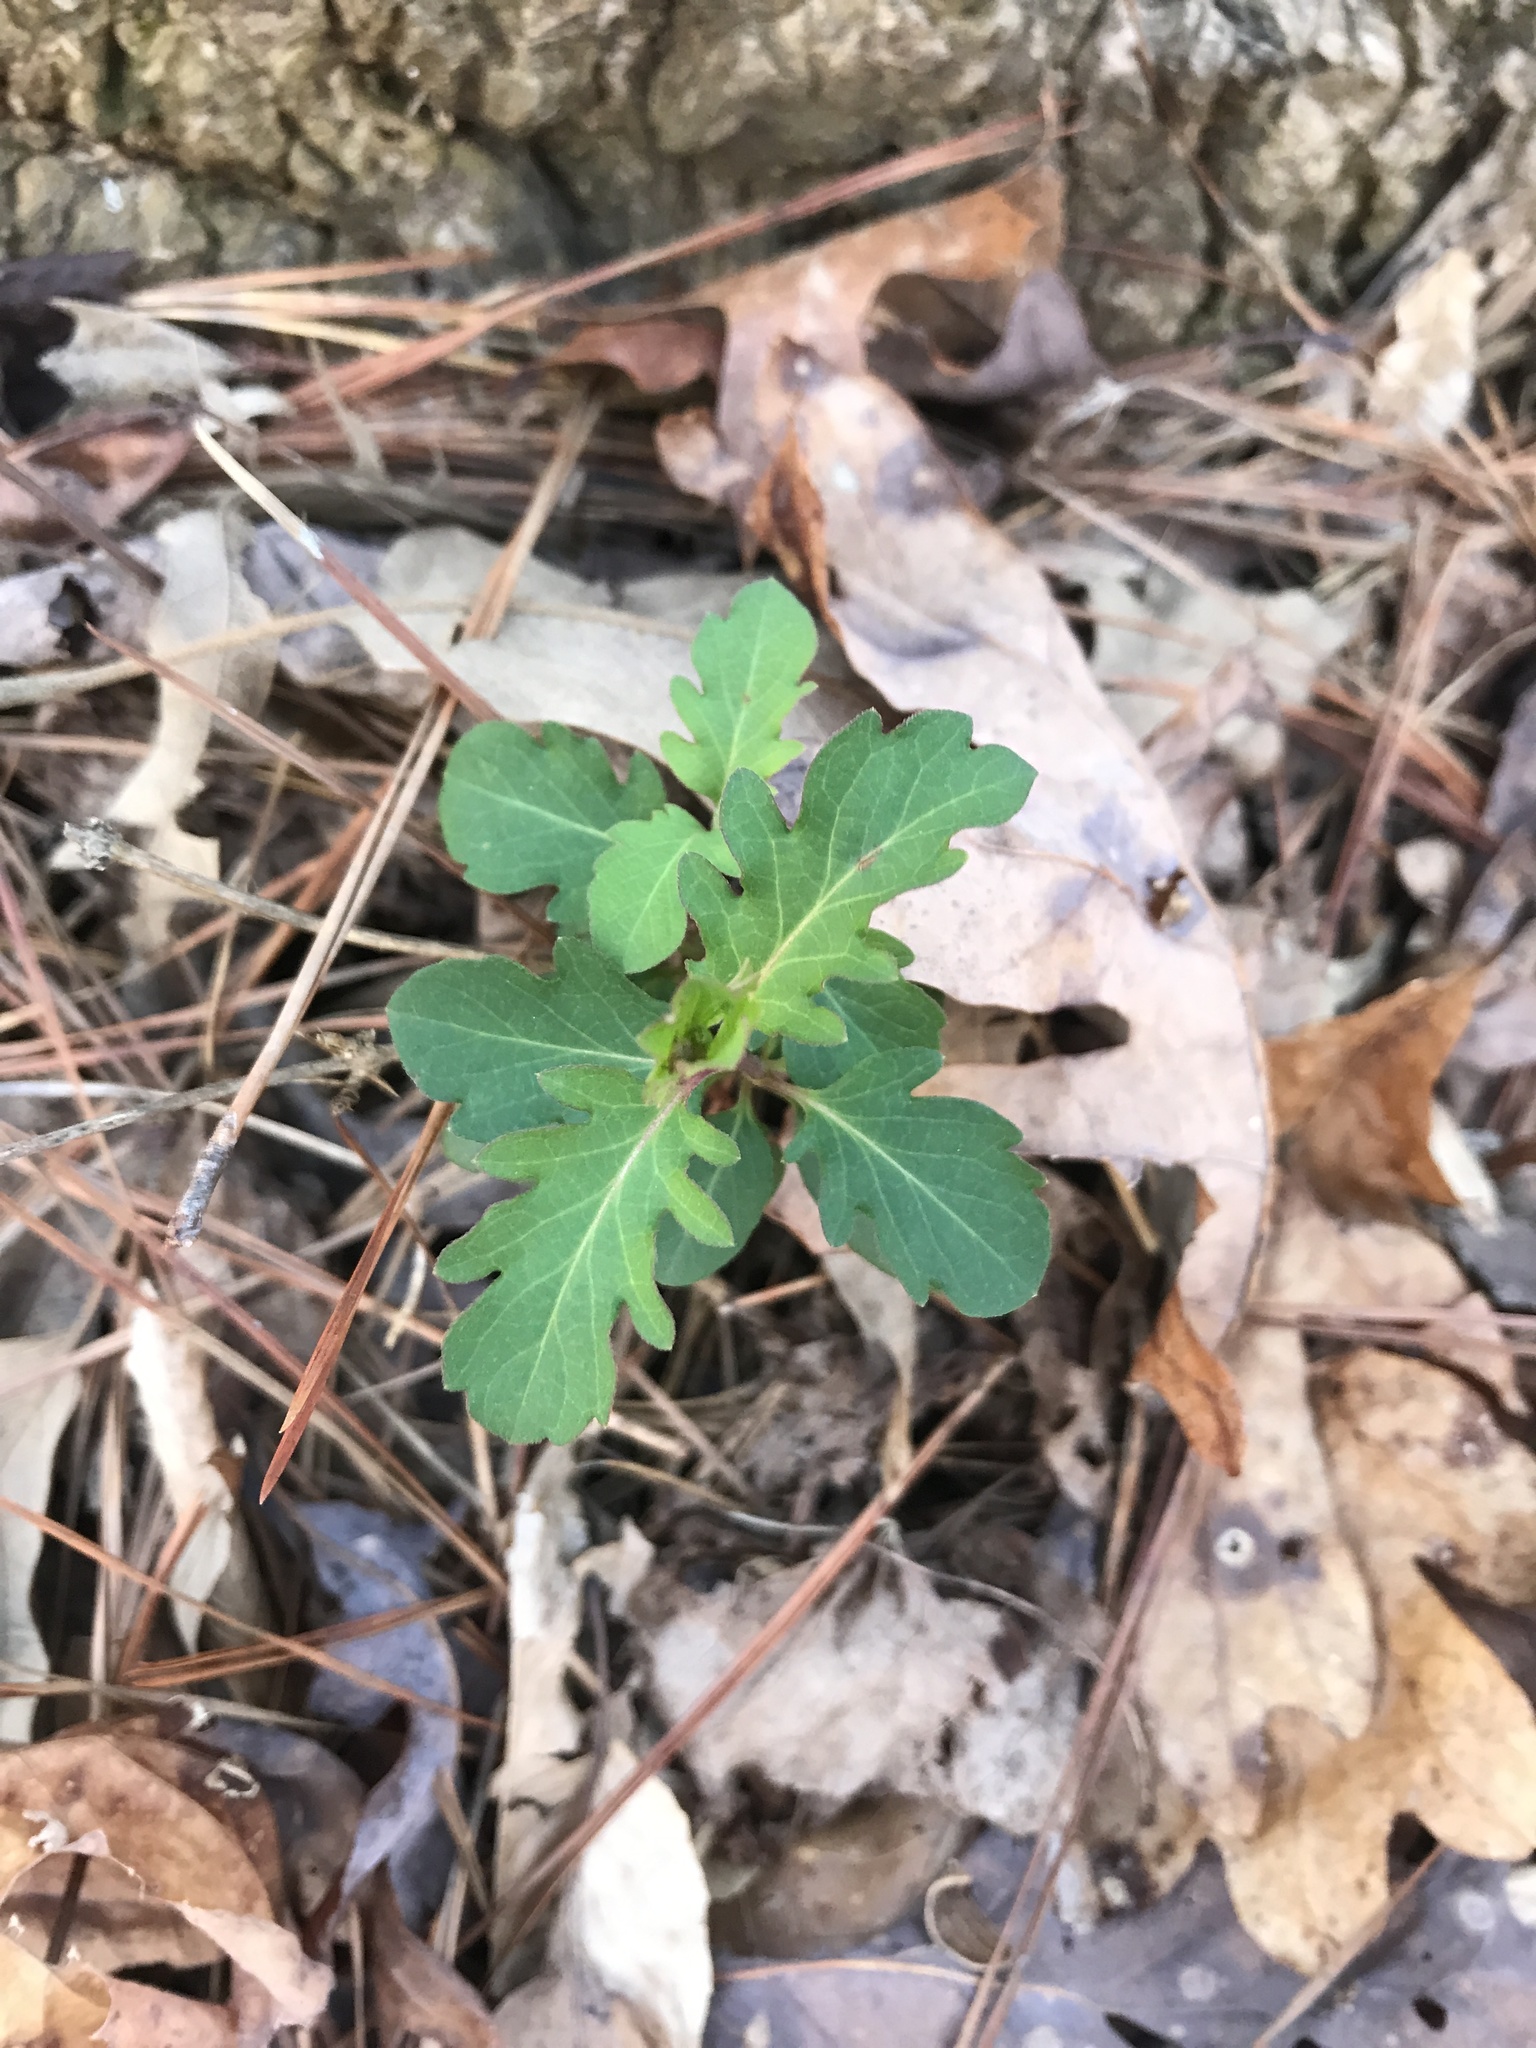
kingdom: Plantae
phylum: Tracheophyta
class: Magnoliopsida
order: Dipsacales
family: Caprifoliaceae
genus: Lonicera
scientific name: Lonicera japonica
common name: Japanese honeysuckle
